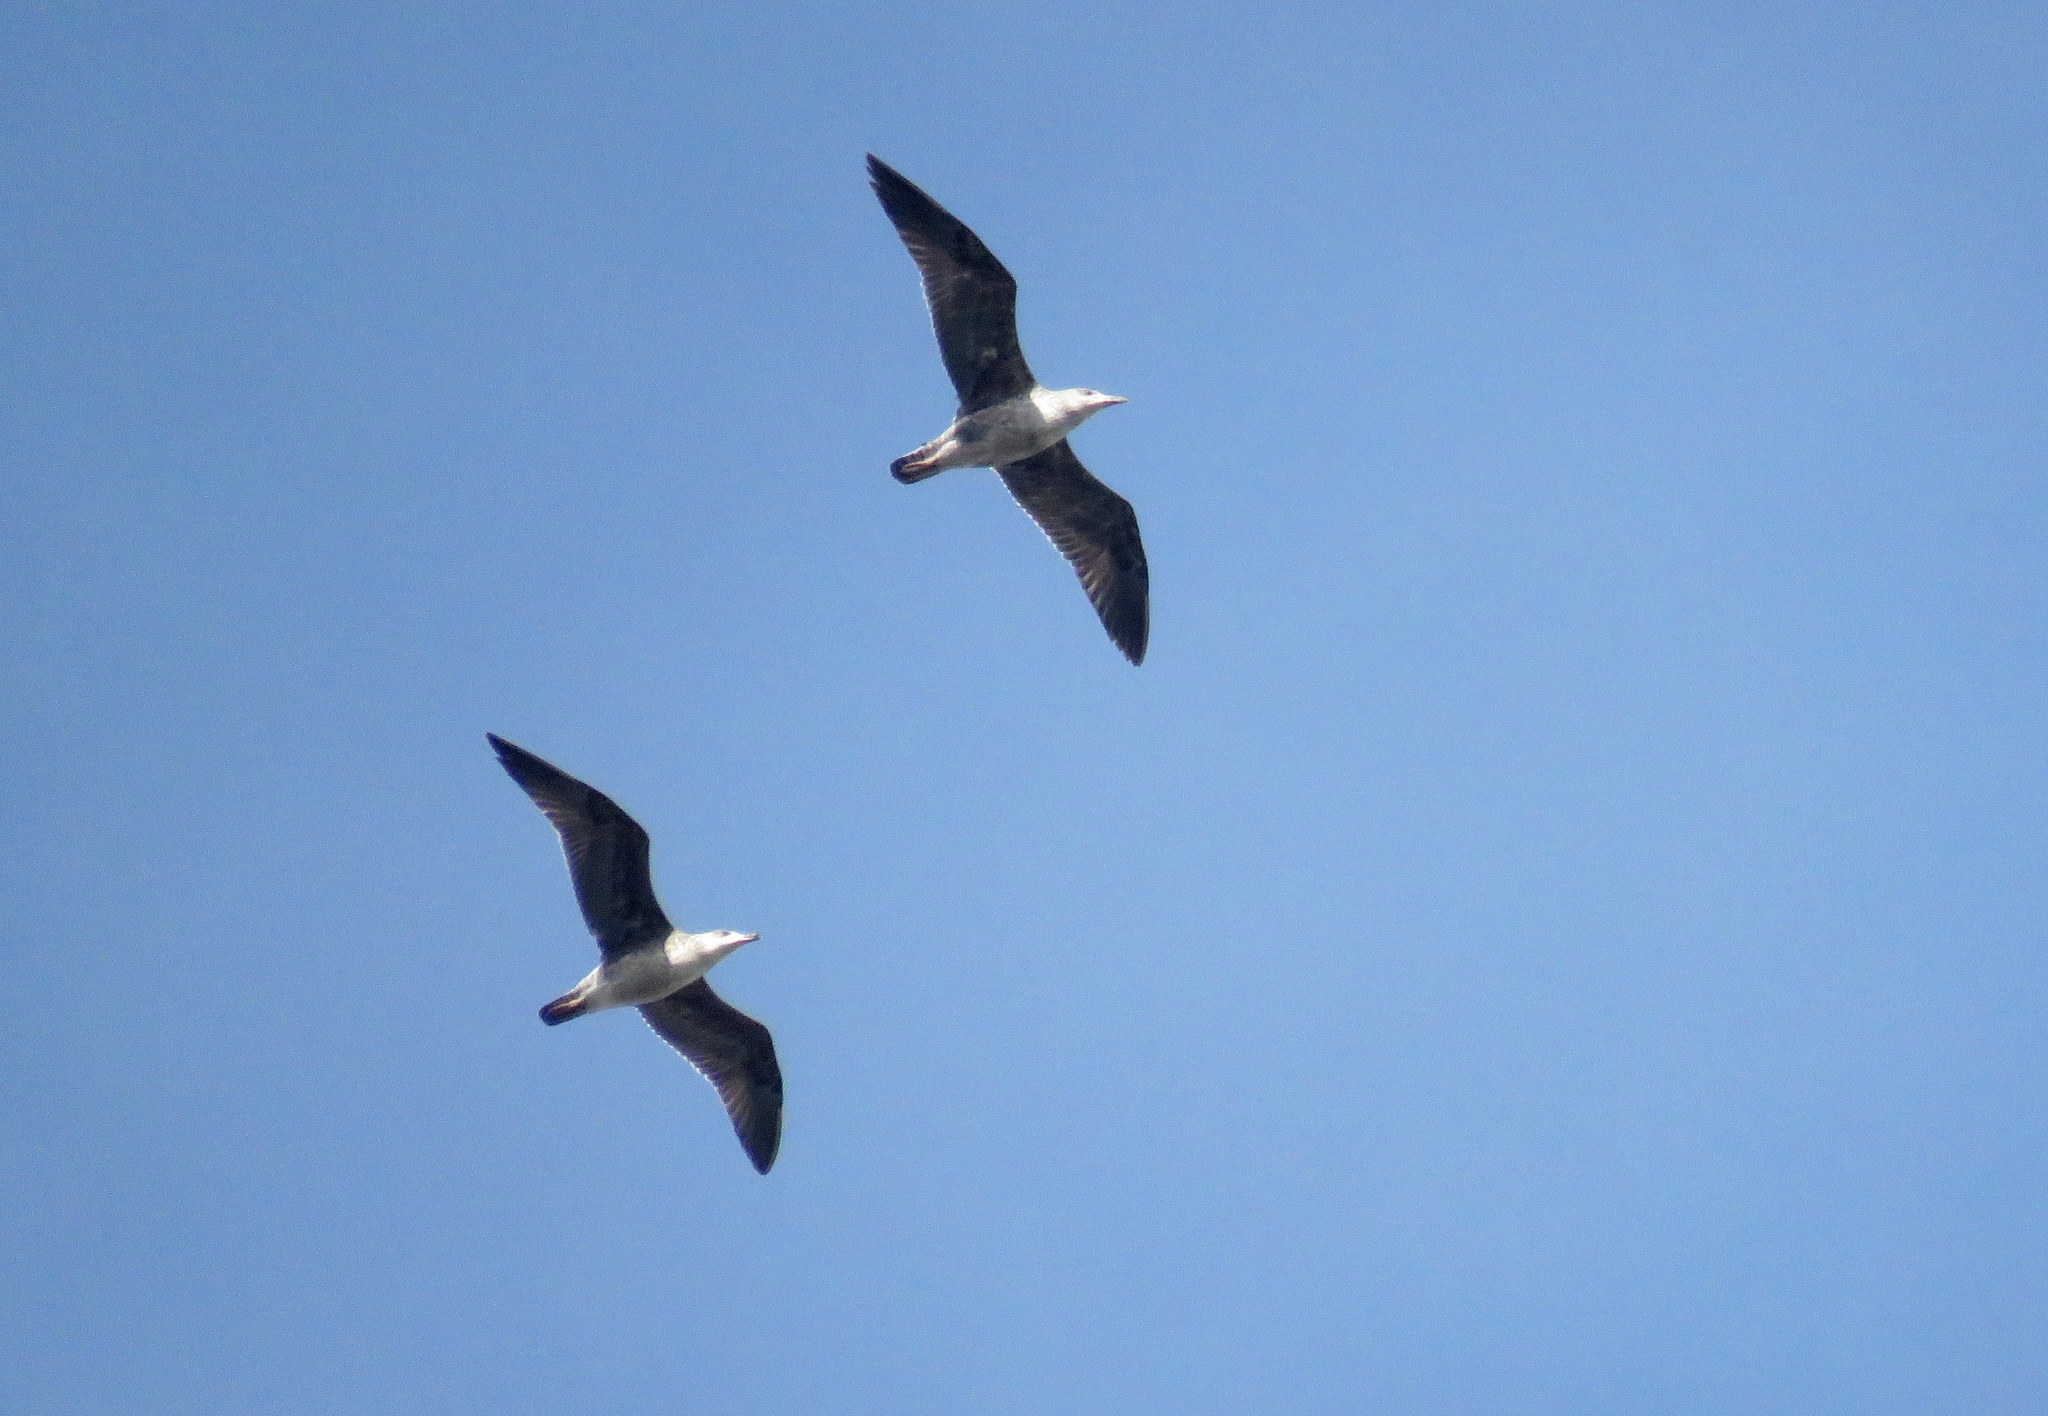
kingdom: Animalia
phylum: Chordata
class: Aves
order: Charadriiformes
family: Laridae
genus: Larus
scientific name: Larus dominicanus
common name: Kelp gull
